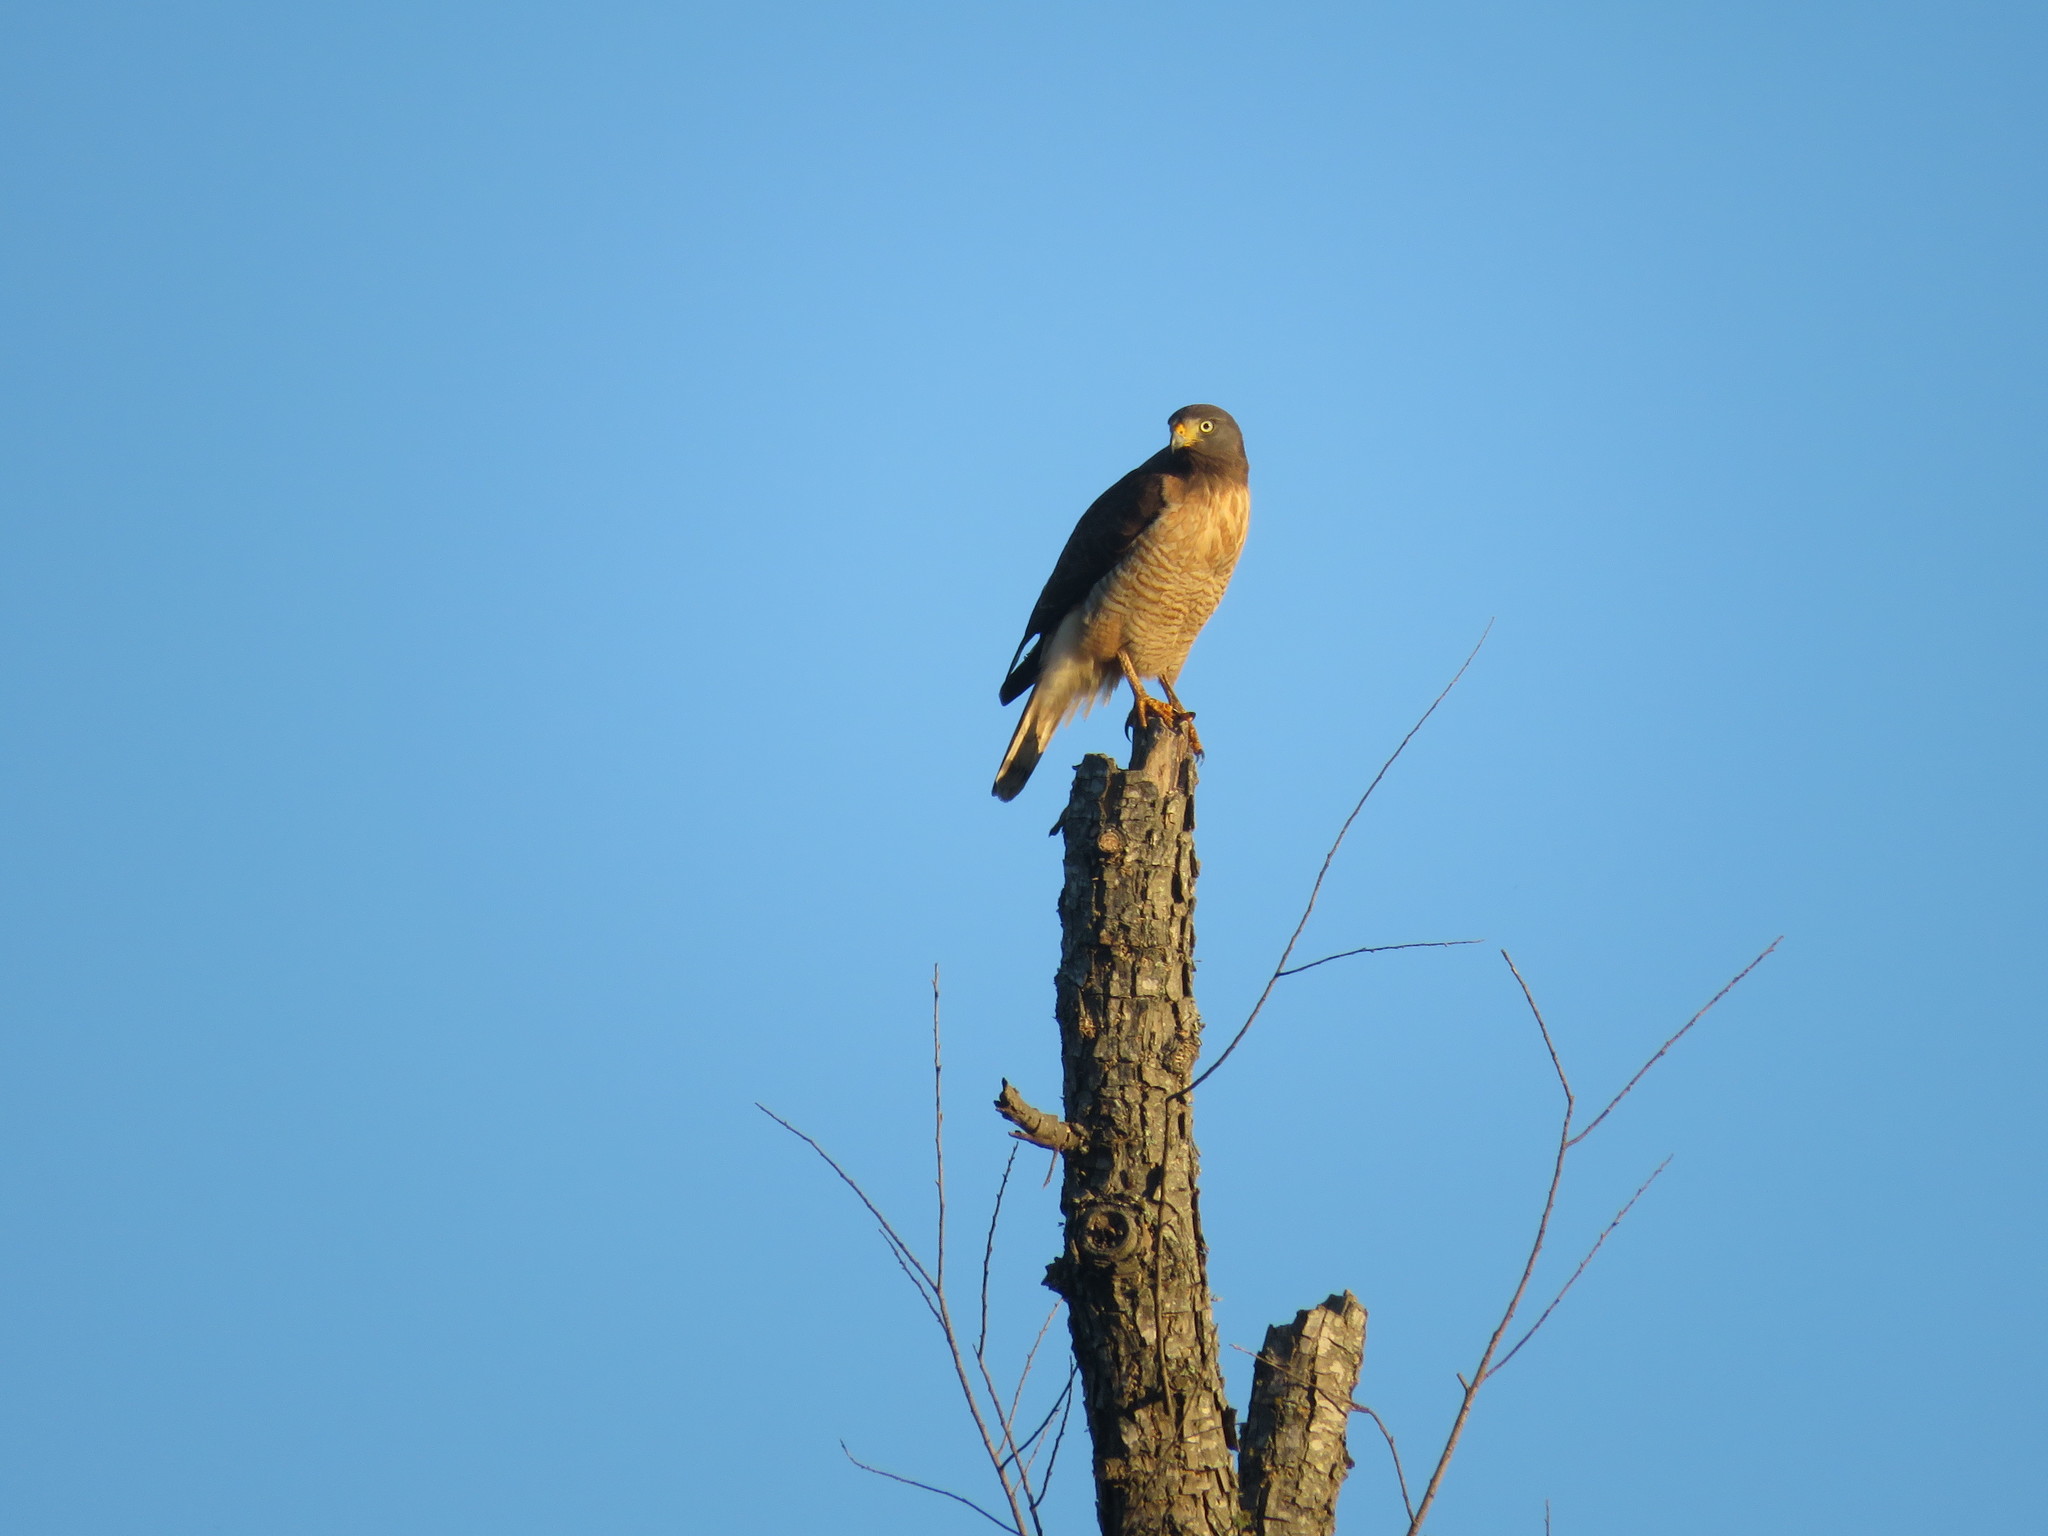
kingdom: Animalia
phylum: Chordata
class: Aves
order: Accipitriformes
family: Accipitridae
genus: Rupornis
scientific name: Rupornis magnirostris
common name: Roadside hawk
